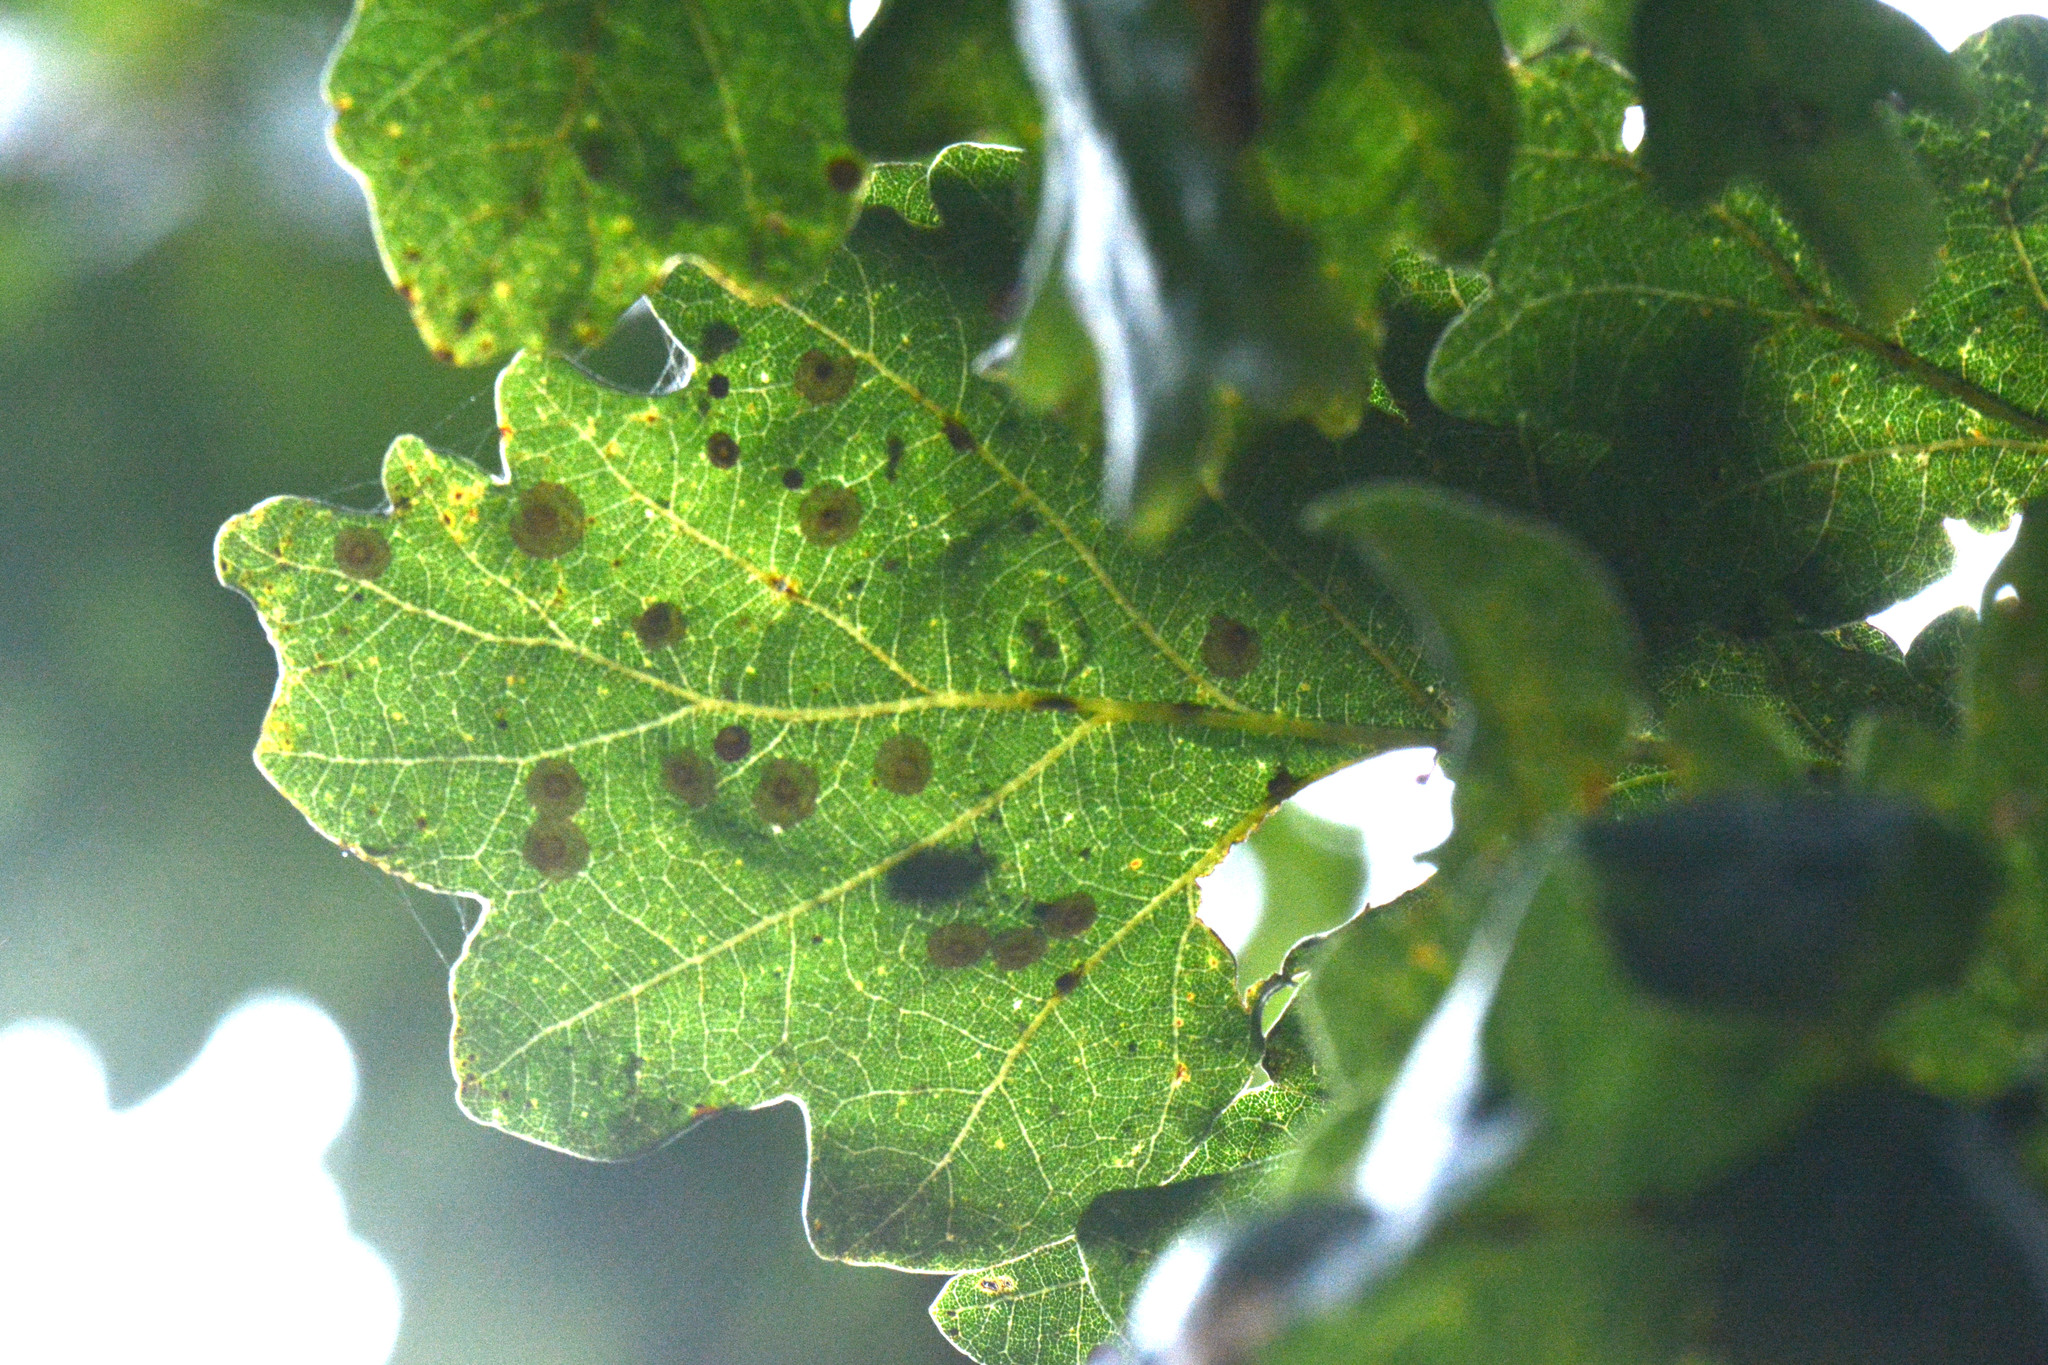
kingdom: Animalia
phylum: Arthropoda
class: Insecta
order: Hymenoptera
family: Cynipidae
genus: Neuroterus
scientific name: Neuroterus quercusbaccarum
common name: Common spangle gall
